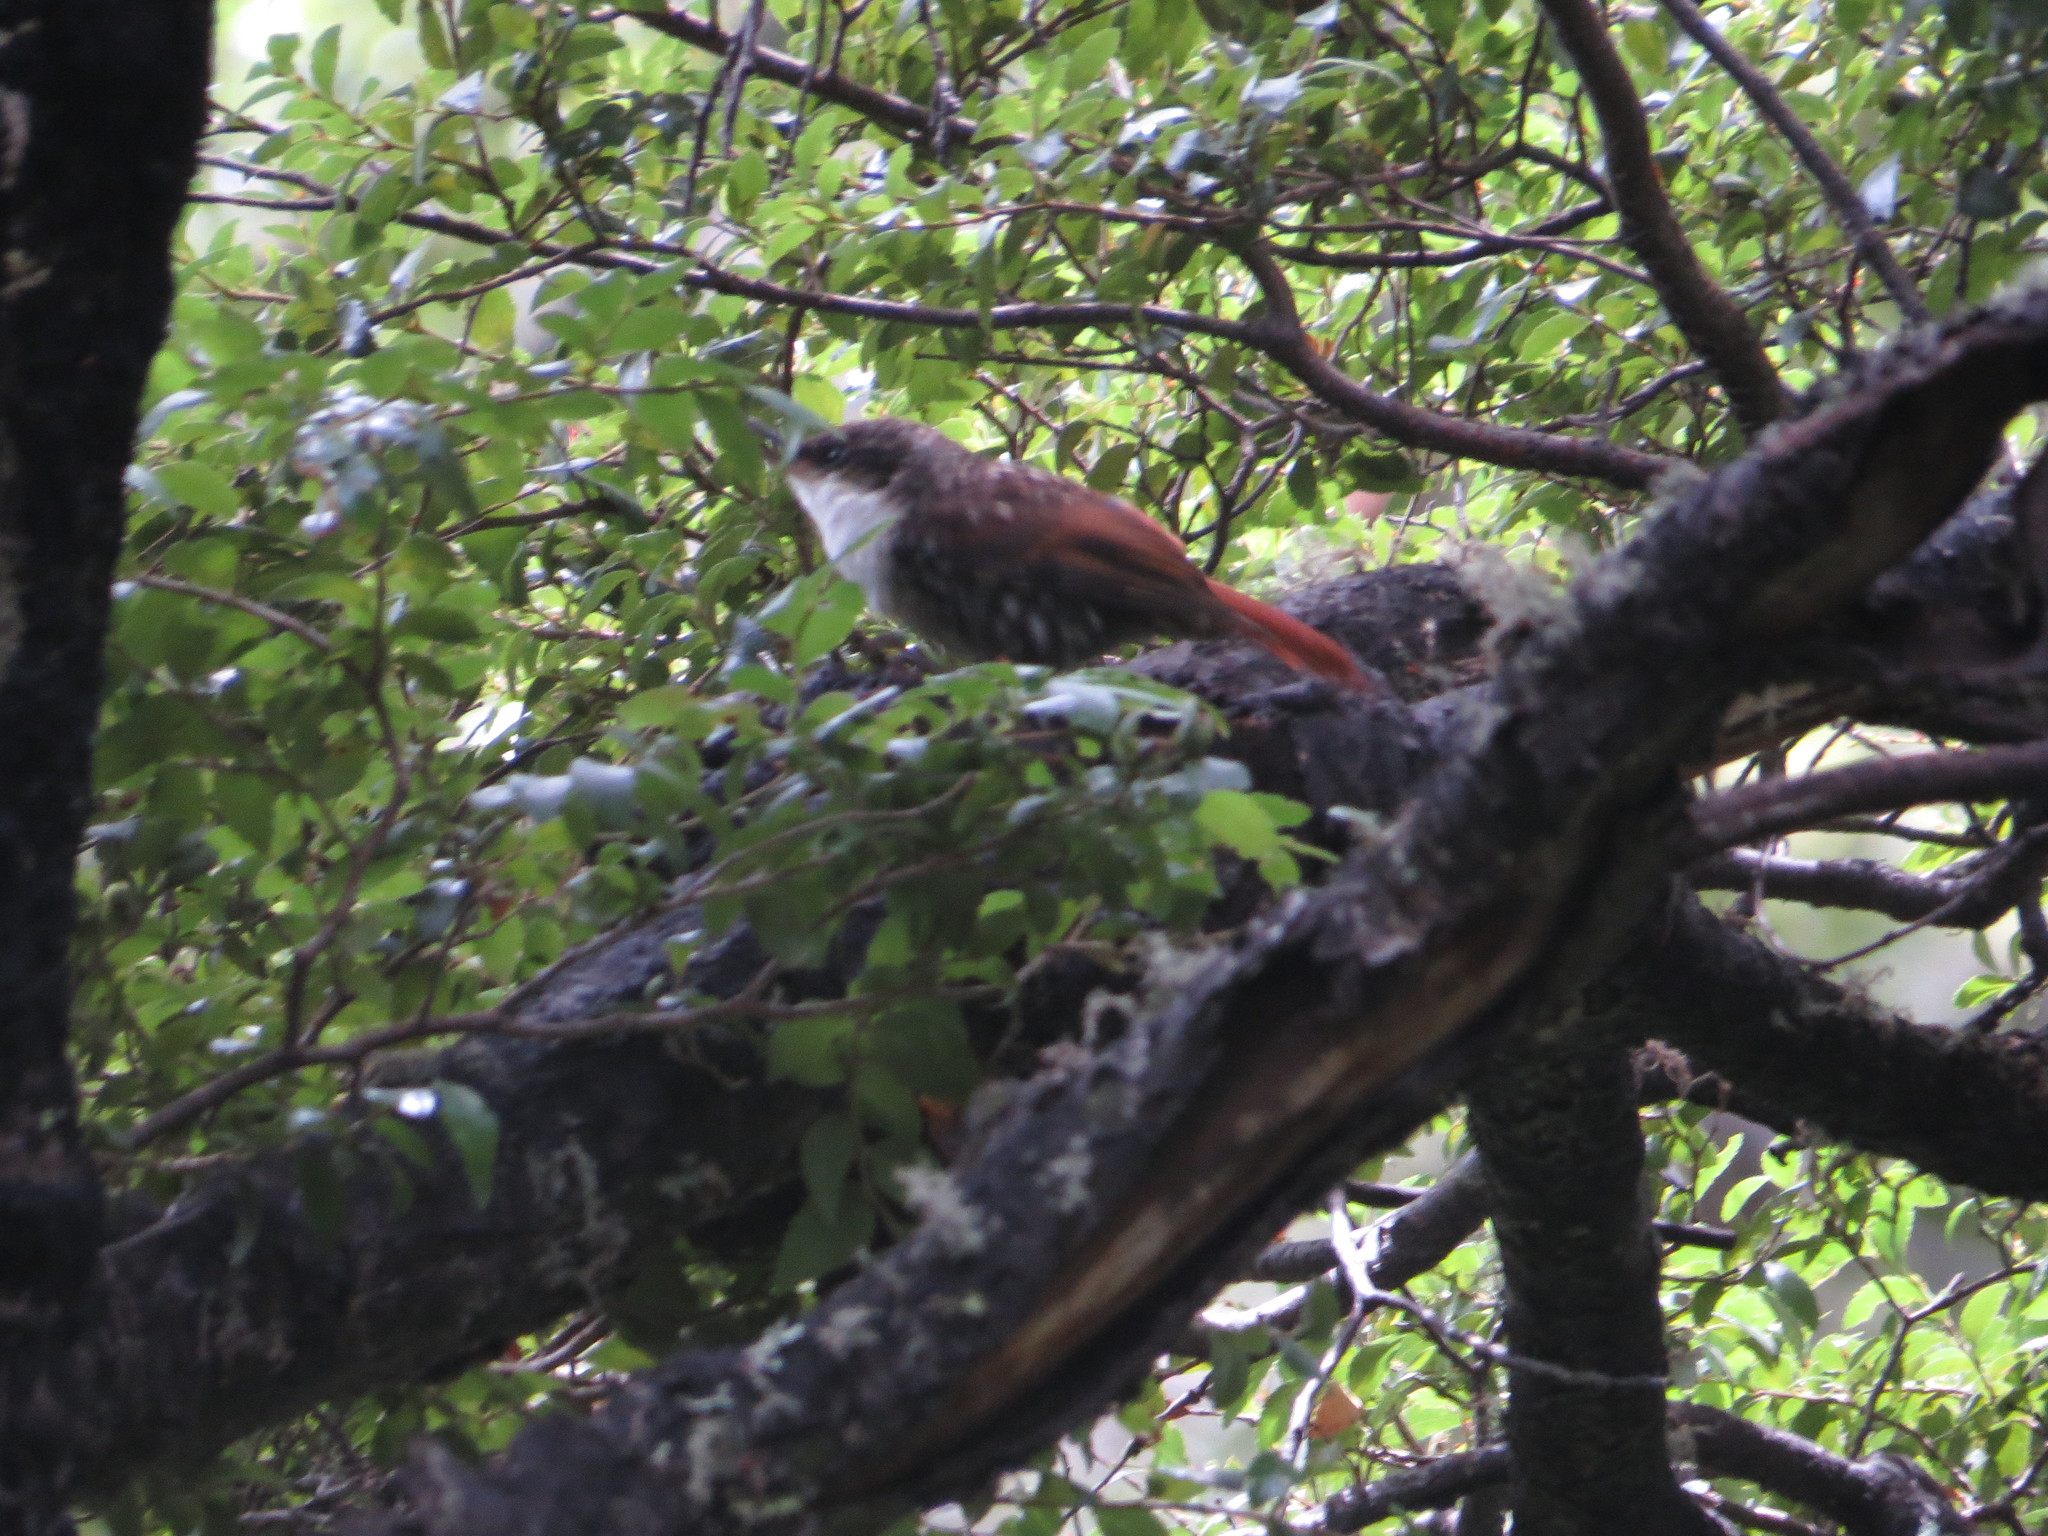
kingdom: Animalia
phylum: Chordata
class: Aves
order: Passeriformes
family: Furnariidae
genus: Pygarrhichas
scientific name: Pygarrhichas albogularis
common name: White-throated treerunner
